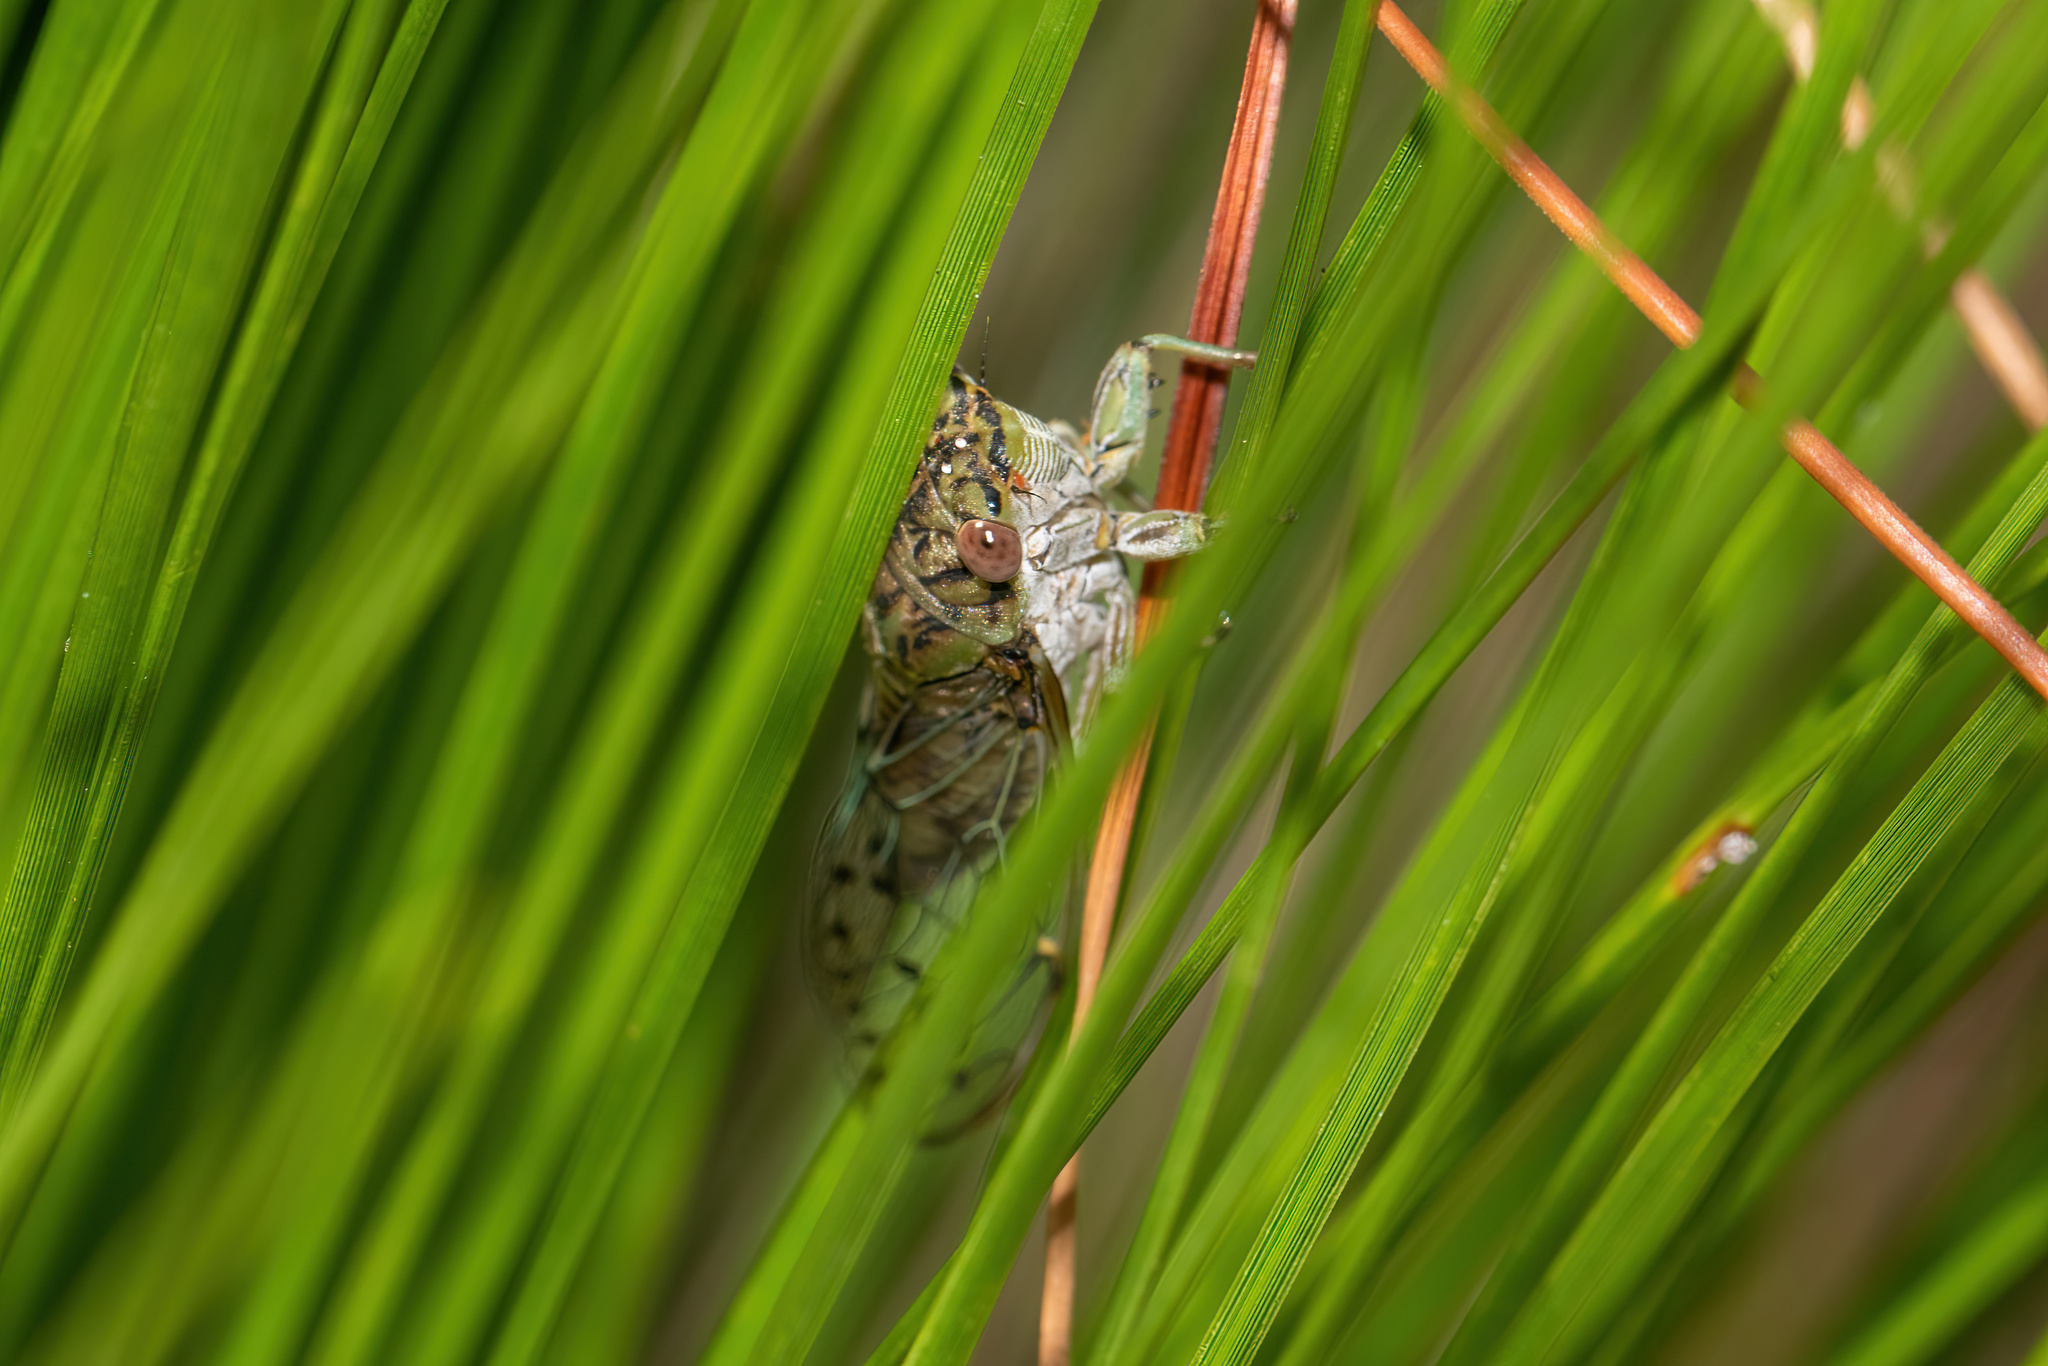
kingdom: Animalia
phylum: Arthropoda
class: Insecta
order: Hemiptera
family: Cicadidae
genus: Neocicada
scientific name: Neocicada hieroglyphica
